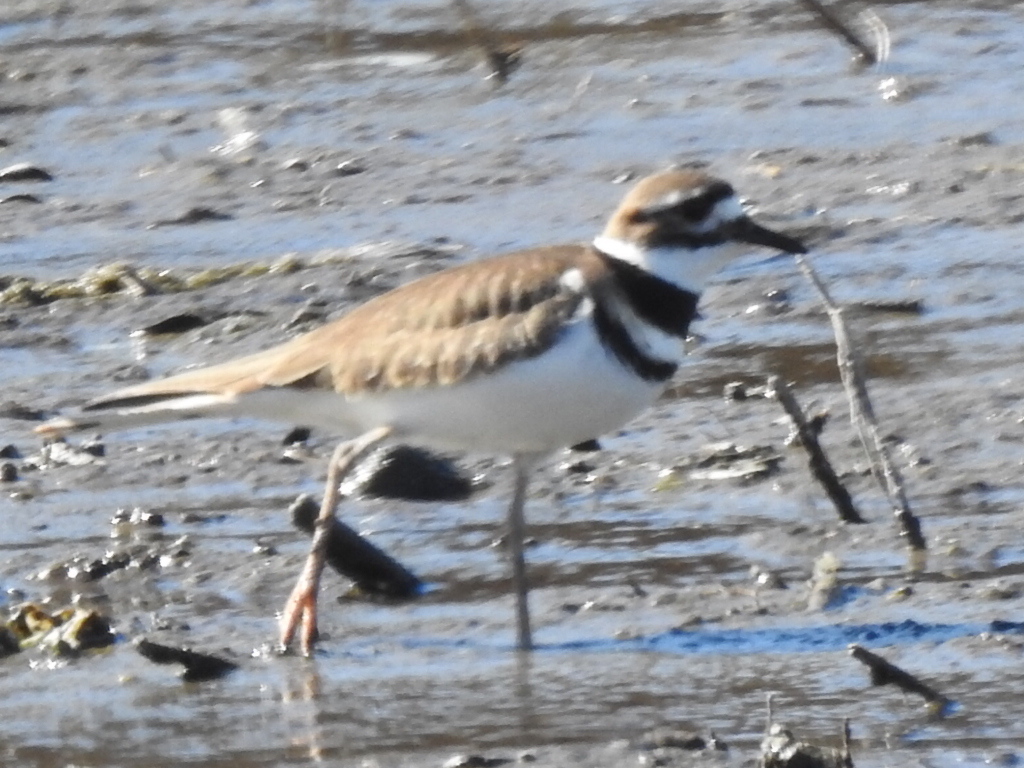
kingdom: Animalia
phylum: Chordata
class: Aves
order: Charadriiformes
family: Charadriidae
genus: Charadrius
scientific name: Charadrius vociferus
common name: Killdeer
